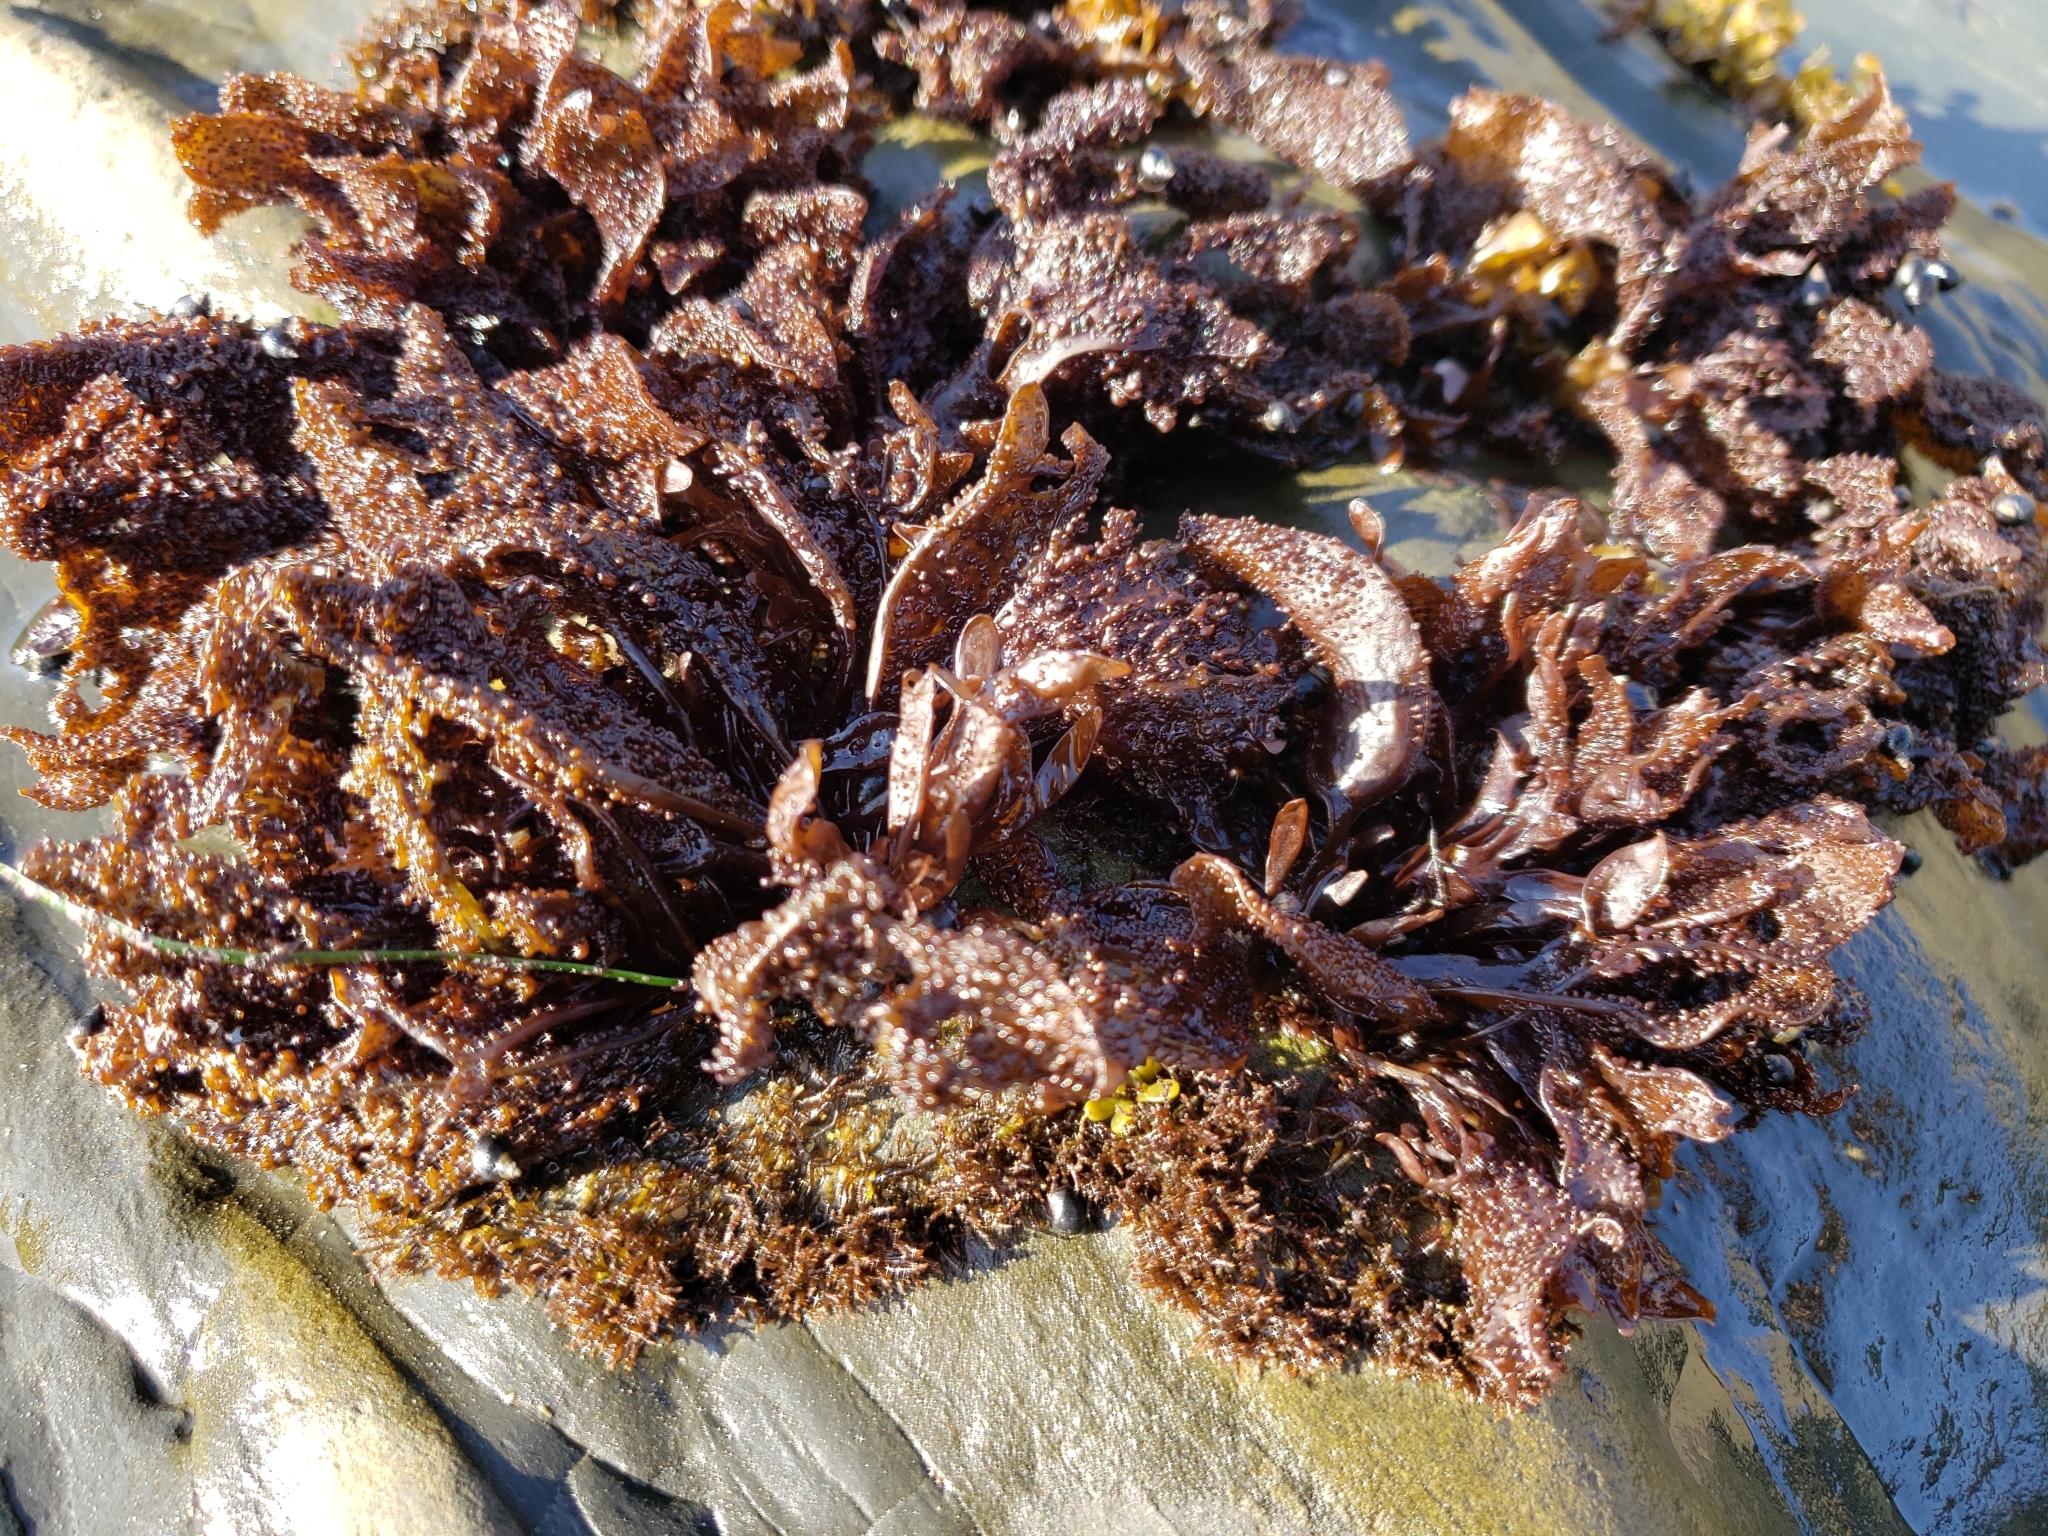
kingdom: Plantae
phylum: Rhodophyta
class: Florideophyceae
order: Gigartinales
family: Phyllophoraceae
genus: Mastocarpus
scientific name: Mastocarpus papillatus
